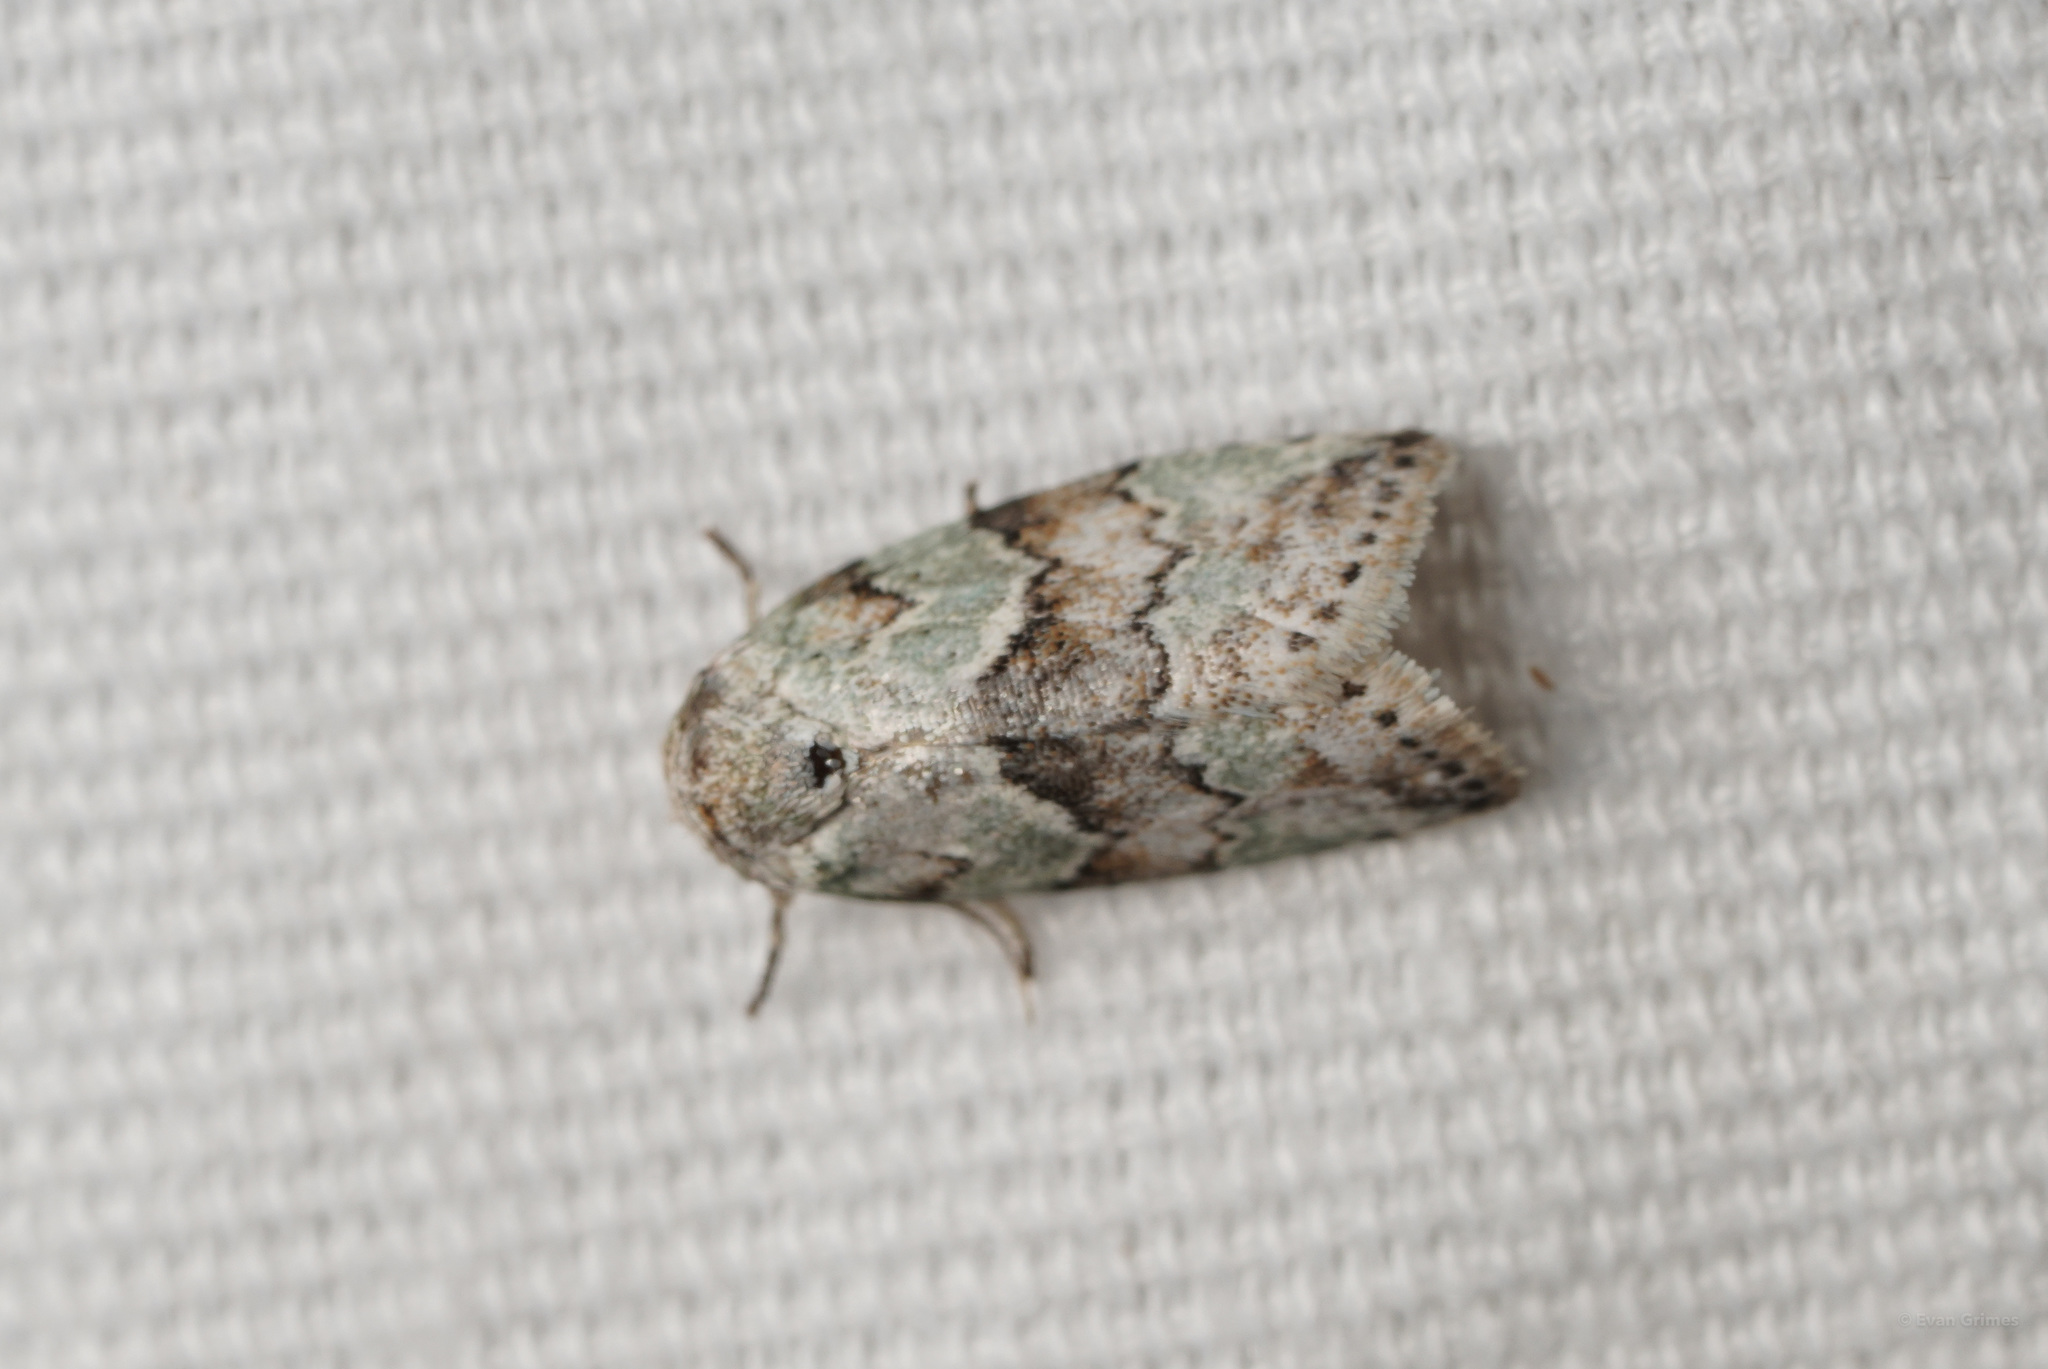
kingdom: Animalia
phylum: Arthropoda
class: Insecta
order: Lepidoptera
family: Nolidae
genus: Afrida
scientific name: Afrida ydatodes
